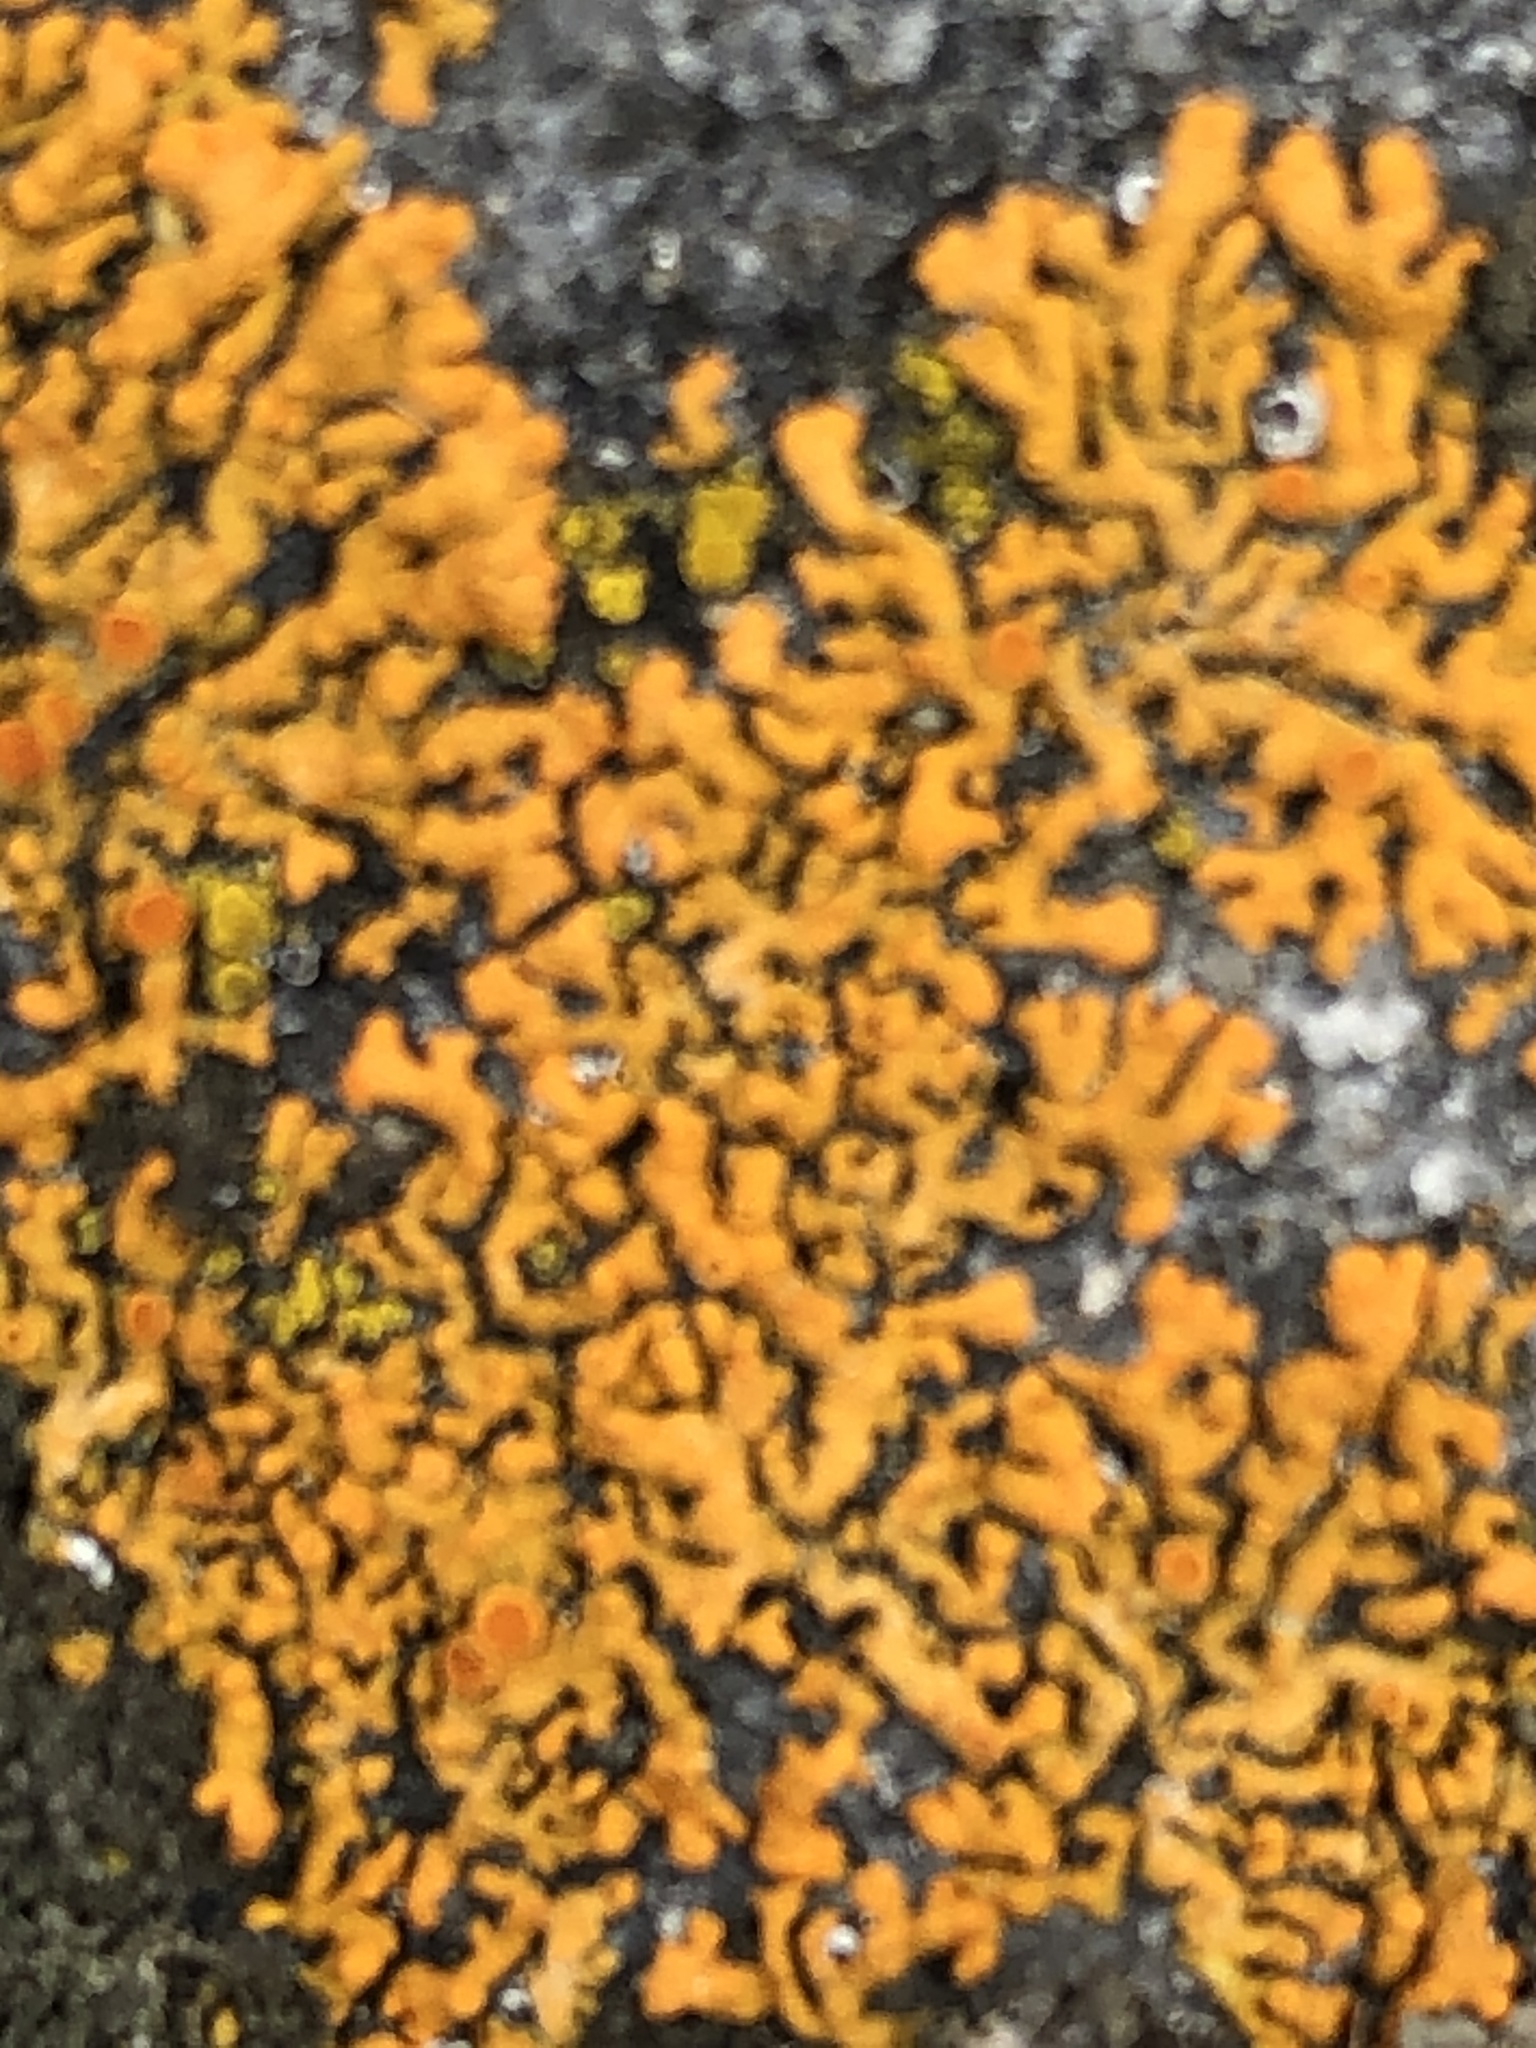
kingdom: Fungi
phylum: Ascomycota
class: Lecanoromycetes
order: Teloschistales
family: Teloschistaceae
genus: Xanthoria
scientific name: Xanthoria elegans
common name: Elegant sunburst lichen
